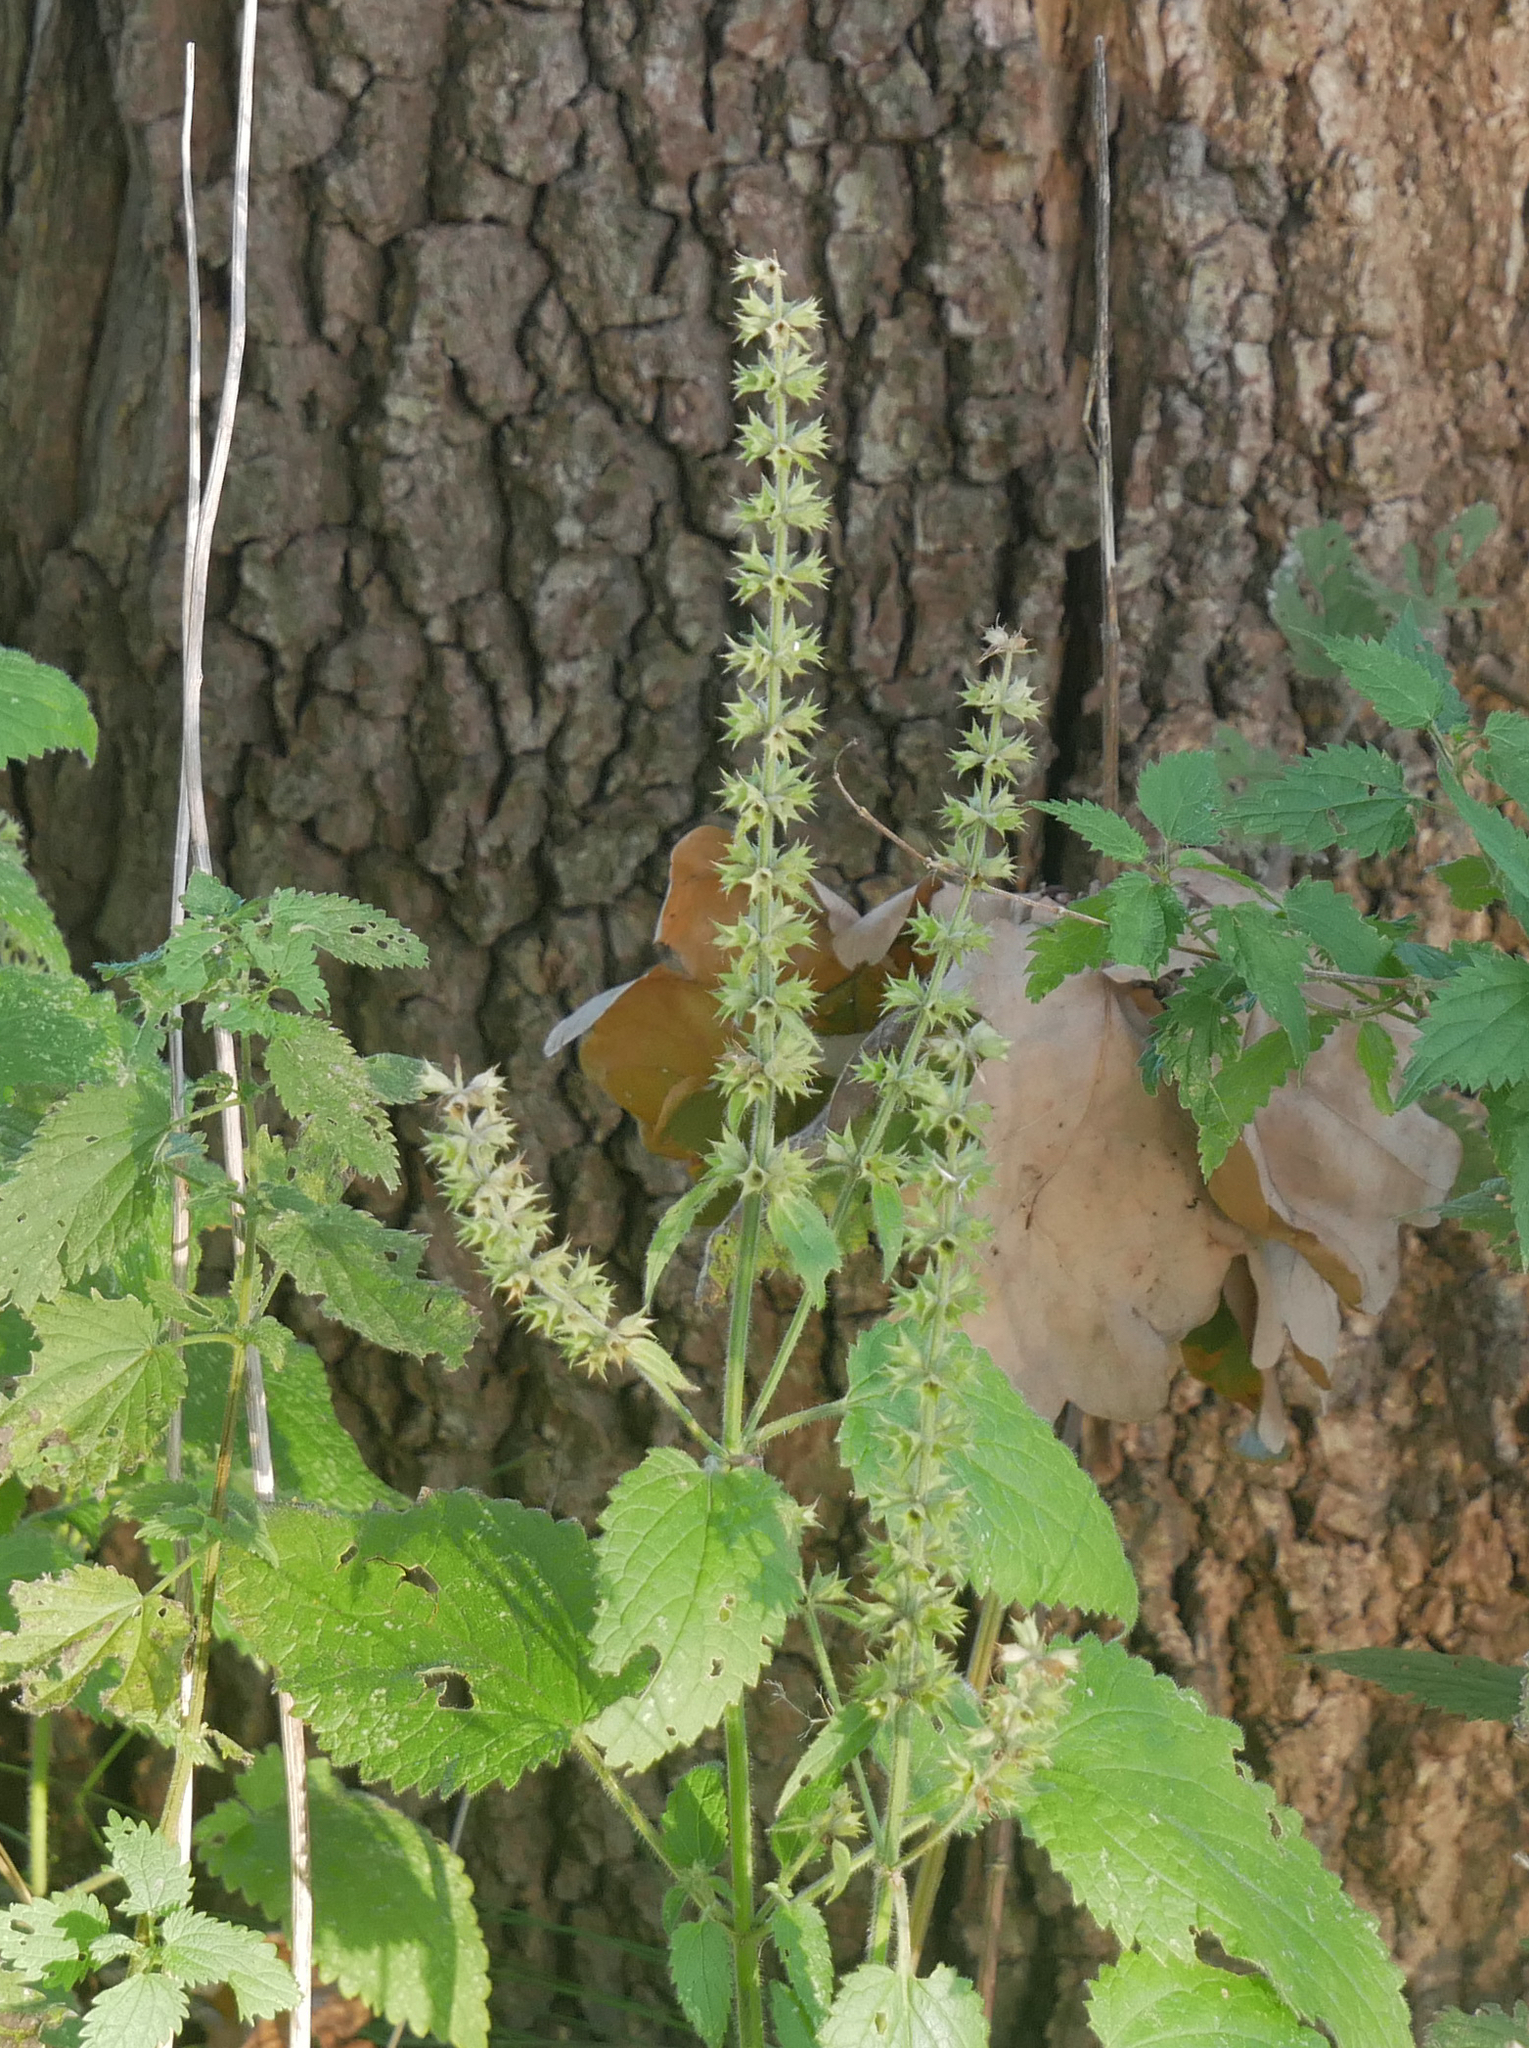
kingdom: Plantae
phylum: Tracheophyta
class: Magnoliopsida
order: Lamiales
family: Lamiaceae
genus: Stachys
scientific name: Stachys sylvatica
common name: Hedge woundwort
